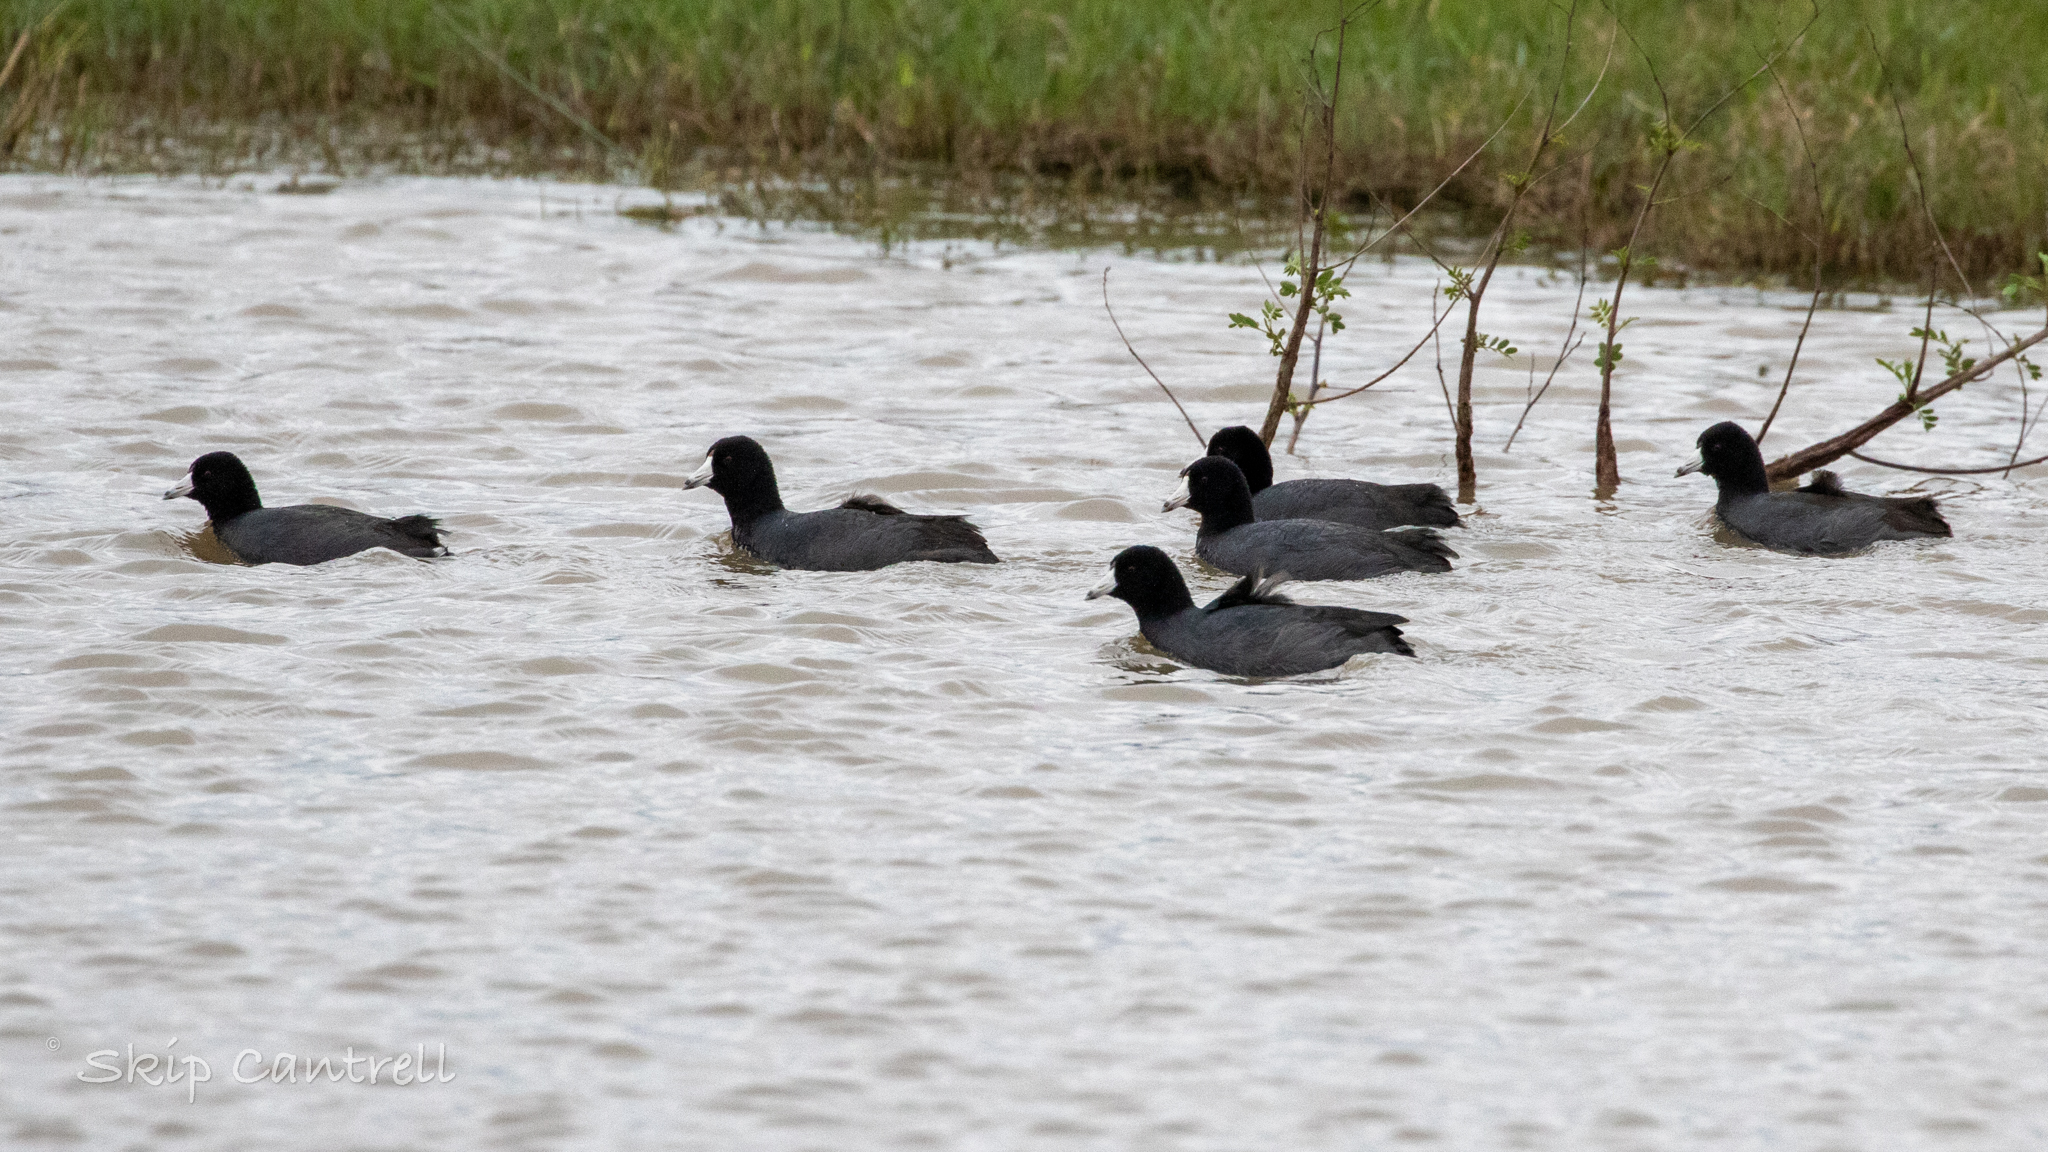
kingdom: Animalia
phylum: Chordata
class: Aves
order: Gruiformes
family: Rallidae
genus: Fulica
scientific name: Fulica americana
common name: American coot
